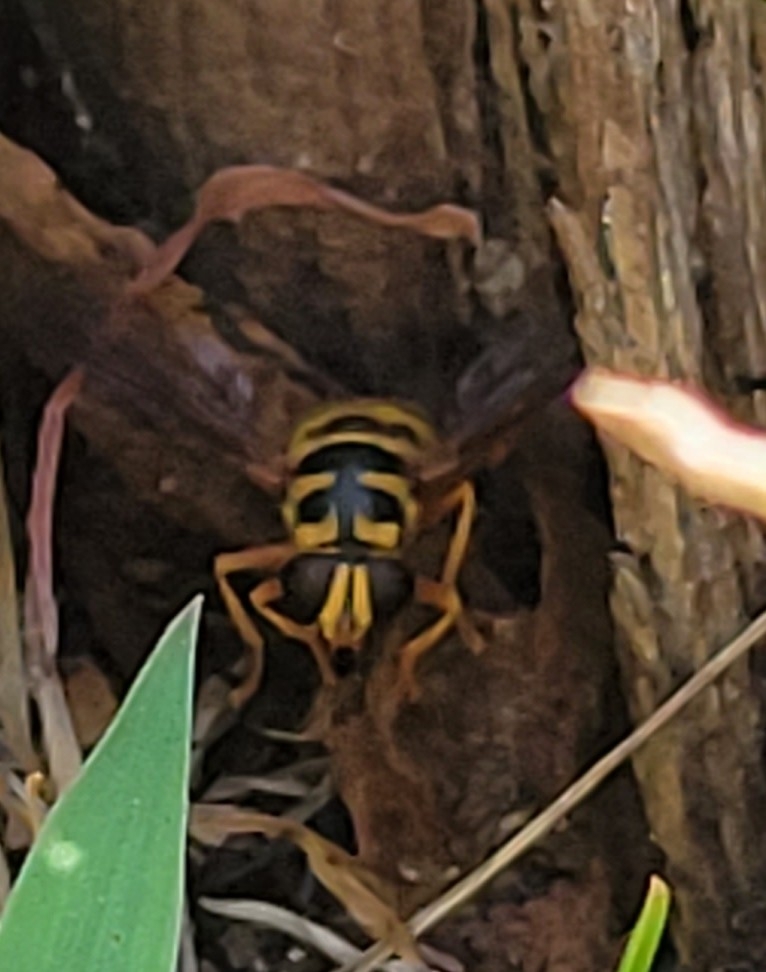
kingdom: Animalia
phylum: Arthropoda
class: Insecta
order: Diptera
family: Syrphidae
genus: Milesia
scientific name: Milesia virginiensis
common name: Virginia giant
